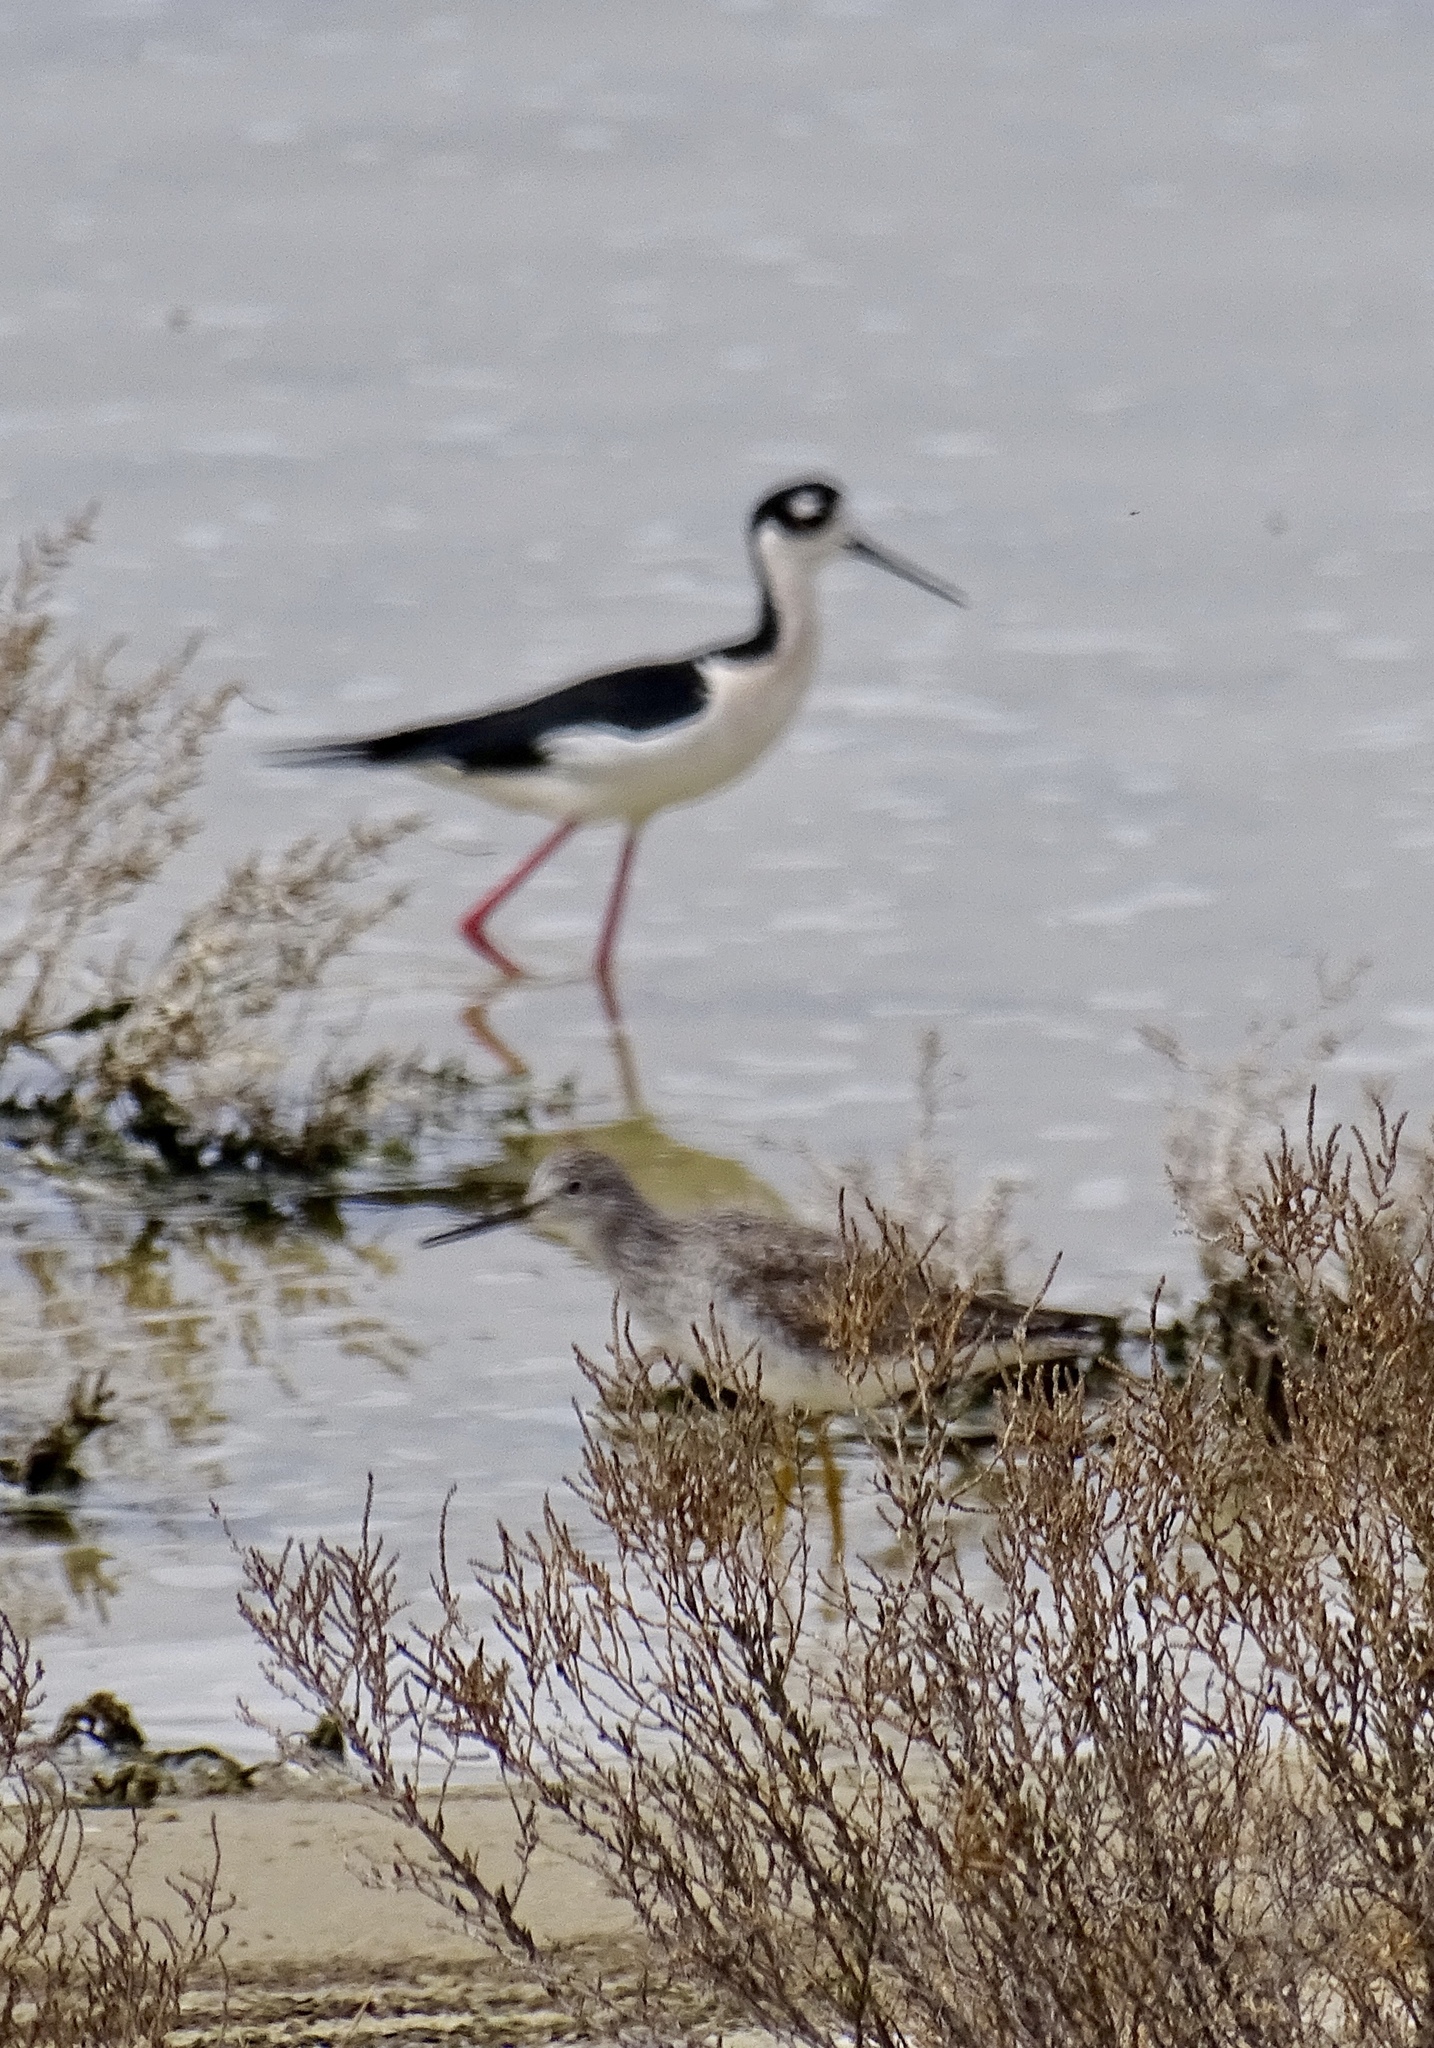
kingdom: Animalia
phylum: Chordata
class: Aves
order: Charadriiformes
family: Recurvirostridae
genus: Himantopus
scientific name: Himantopus mexicanus
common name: Black-necked stilt
